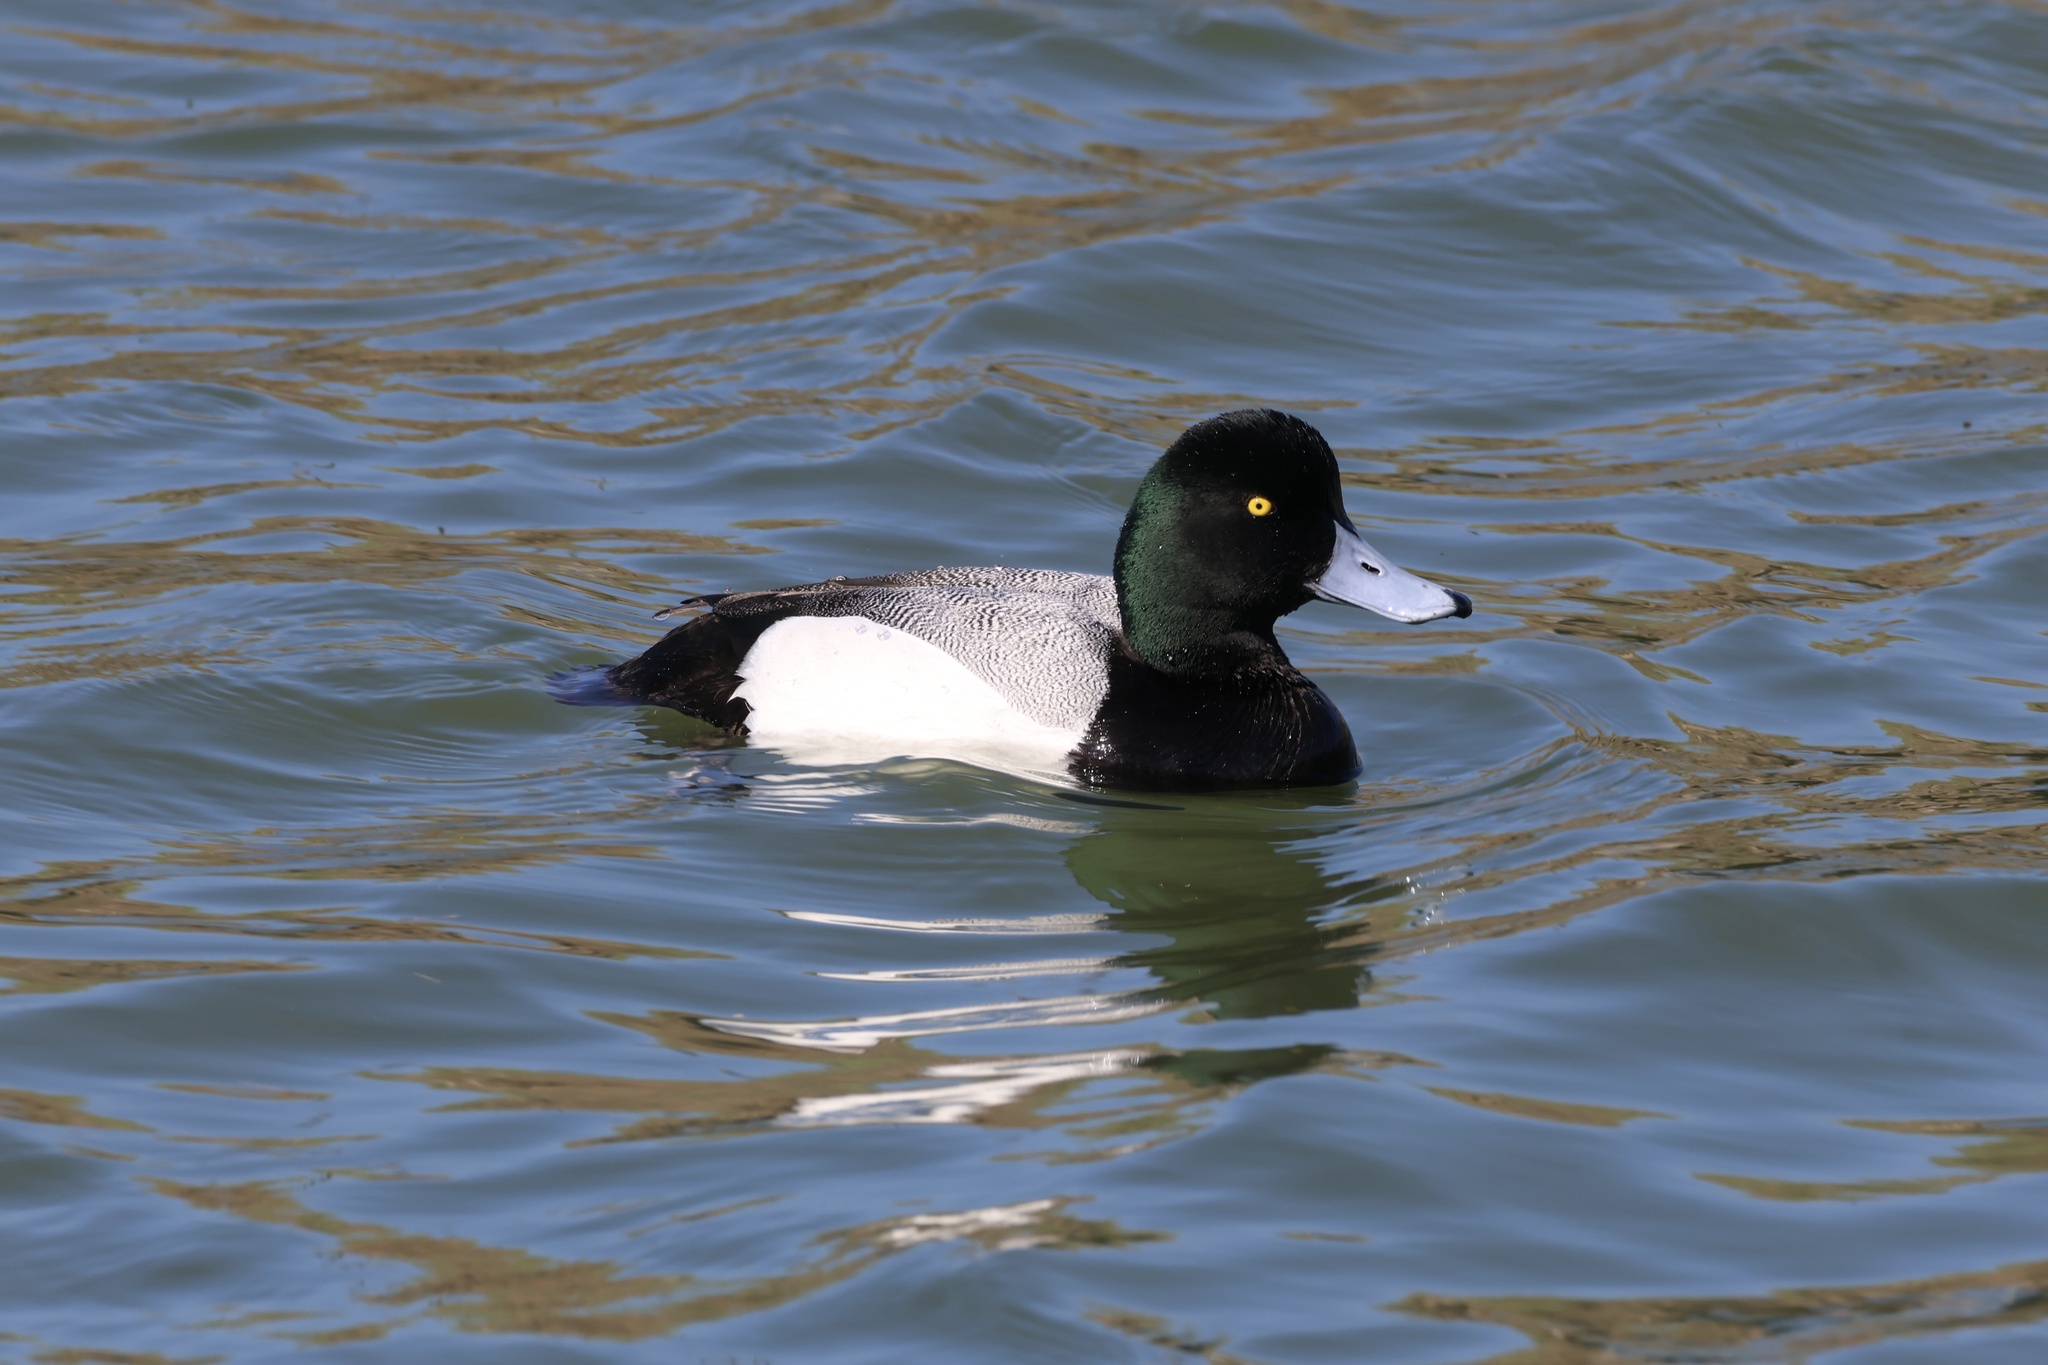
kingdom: Animalia
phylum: Chordata
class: Aves
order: Anseriformes
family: Anatidae
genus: Aythya
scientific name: Aythya marila
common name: Greater scaup
